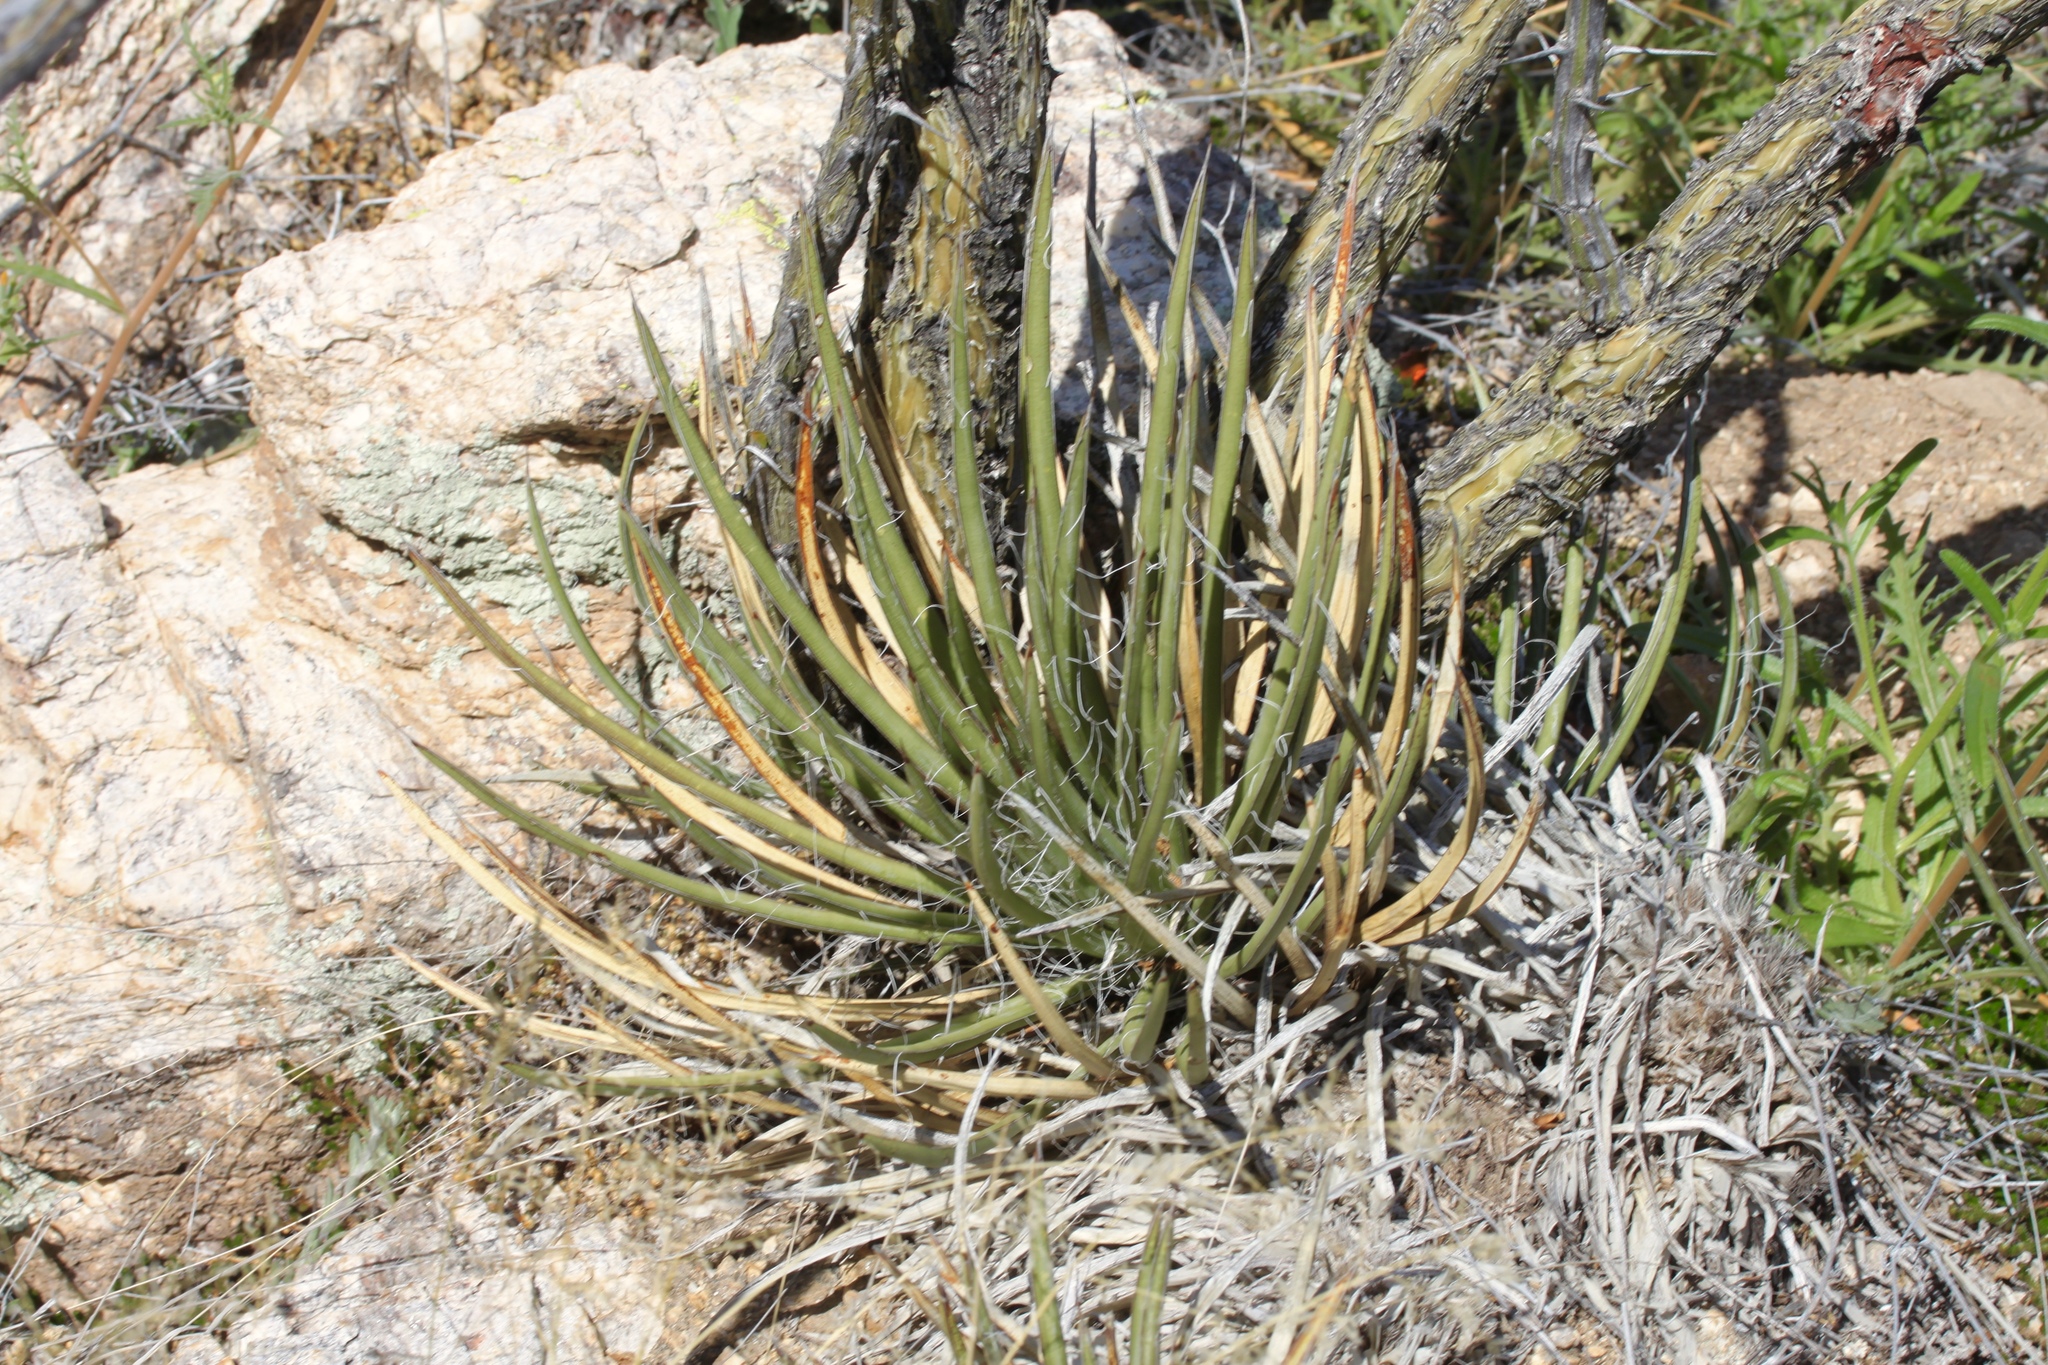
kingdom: Plantae
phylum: Tracheophyta
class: Liliopsida
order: Asparagales
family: Asparagaceae
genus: Agave
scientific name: Agave schottii
